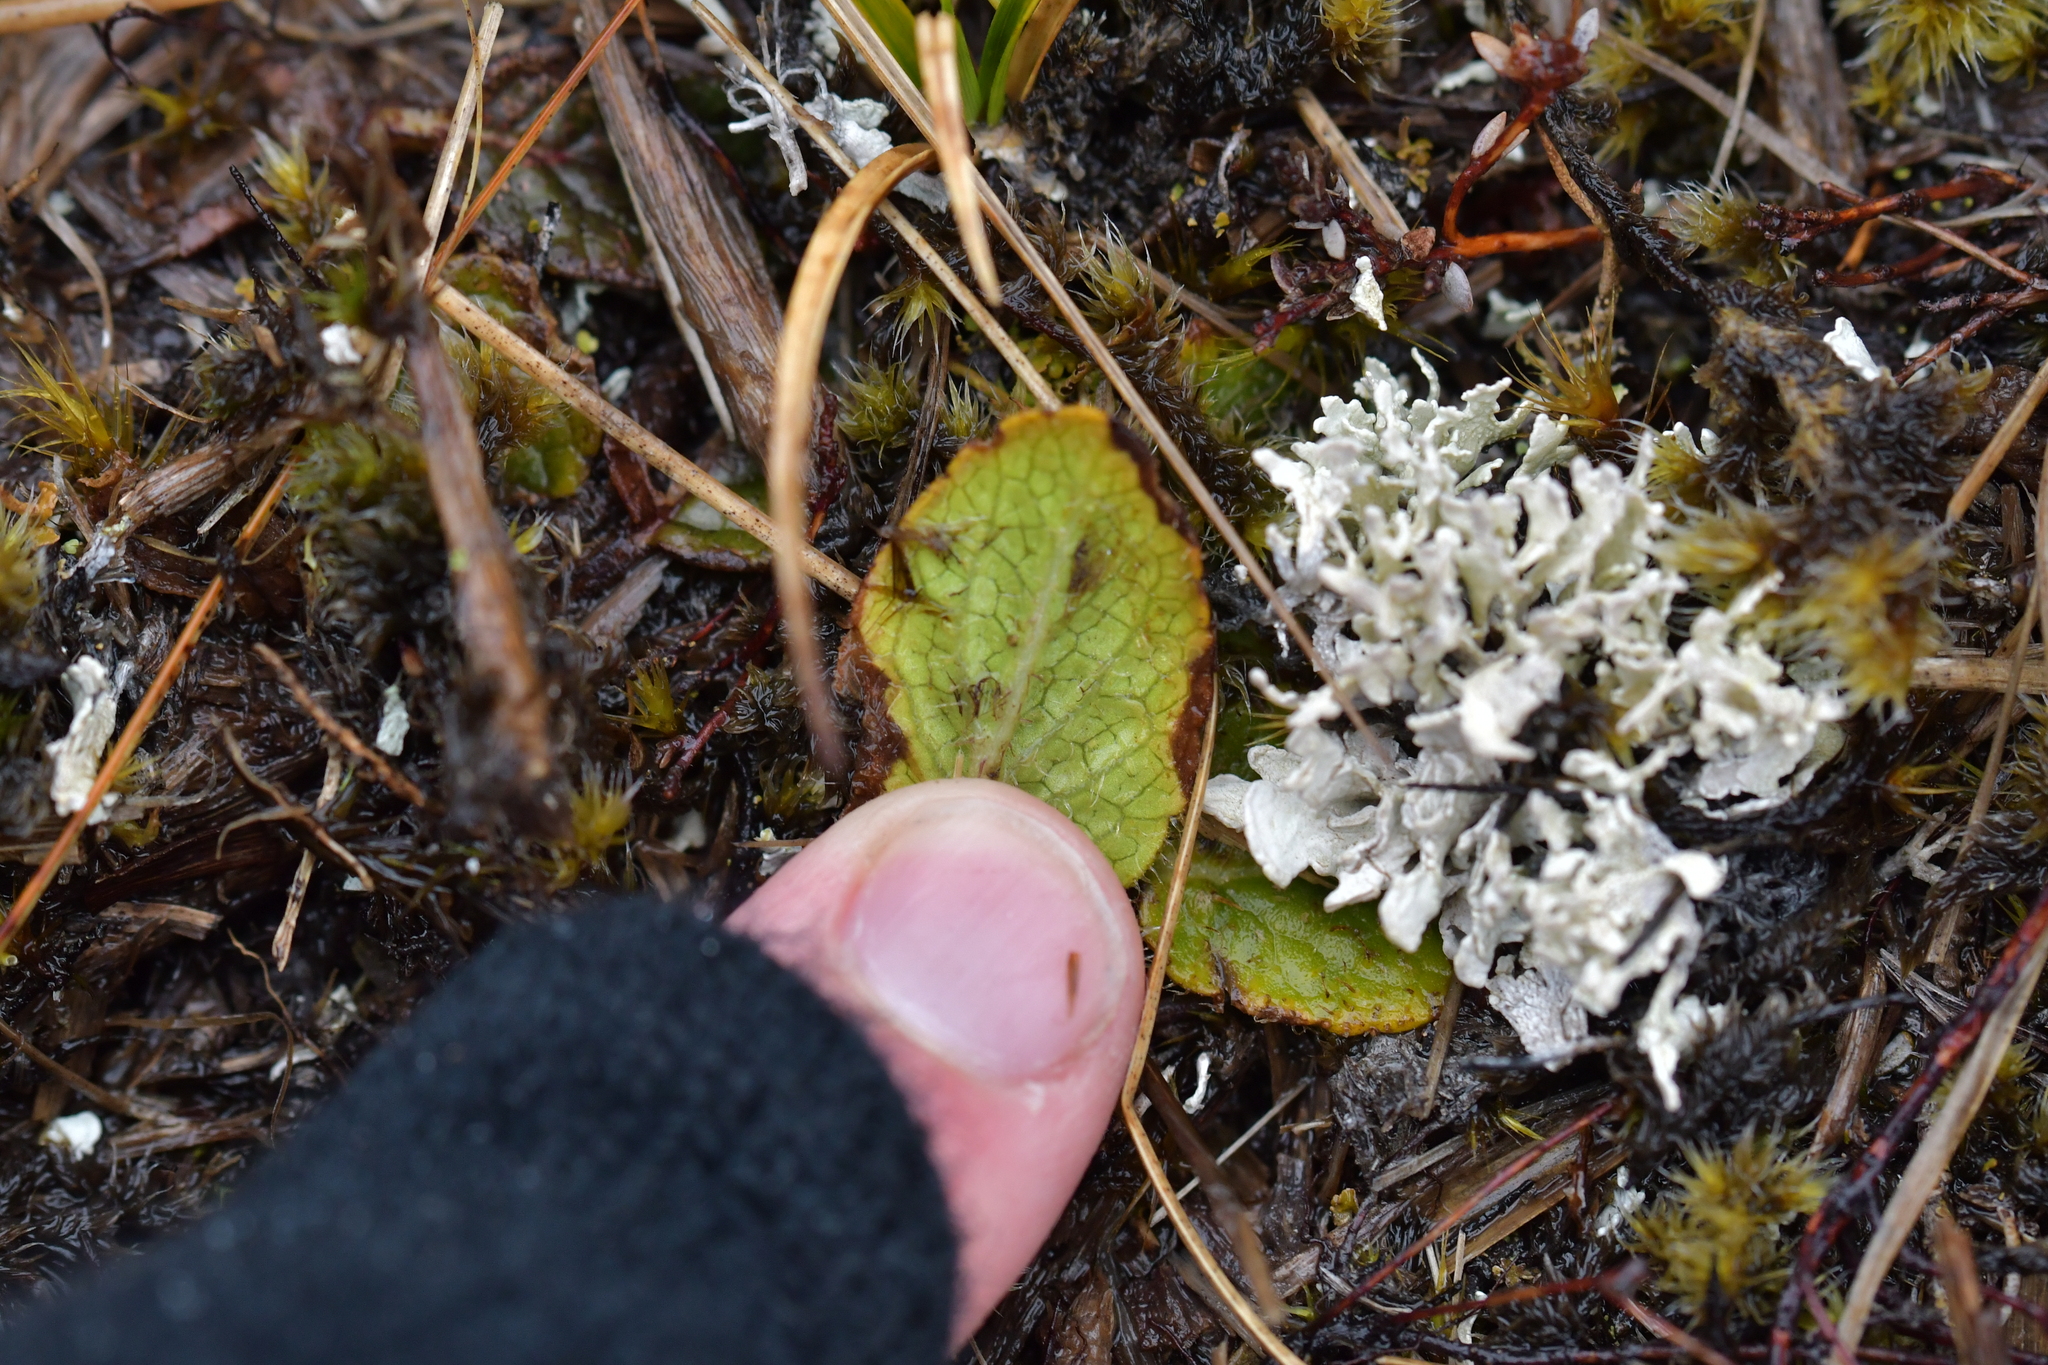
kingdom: Plantae
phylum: Tracheophyta
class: Magnoliopsida
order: Asterales
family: Asteraceae
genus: Brachyglottis
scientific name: Brachyglottis lagopus
